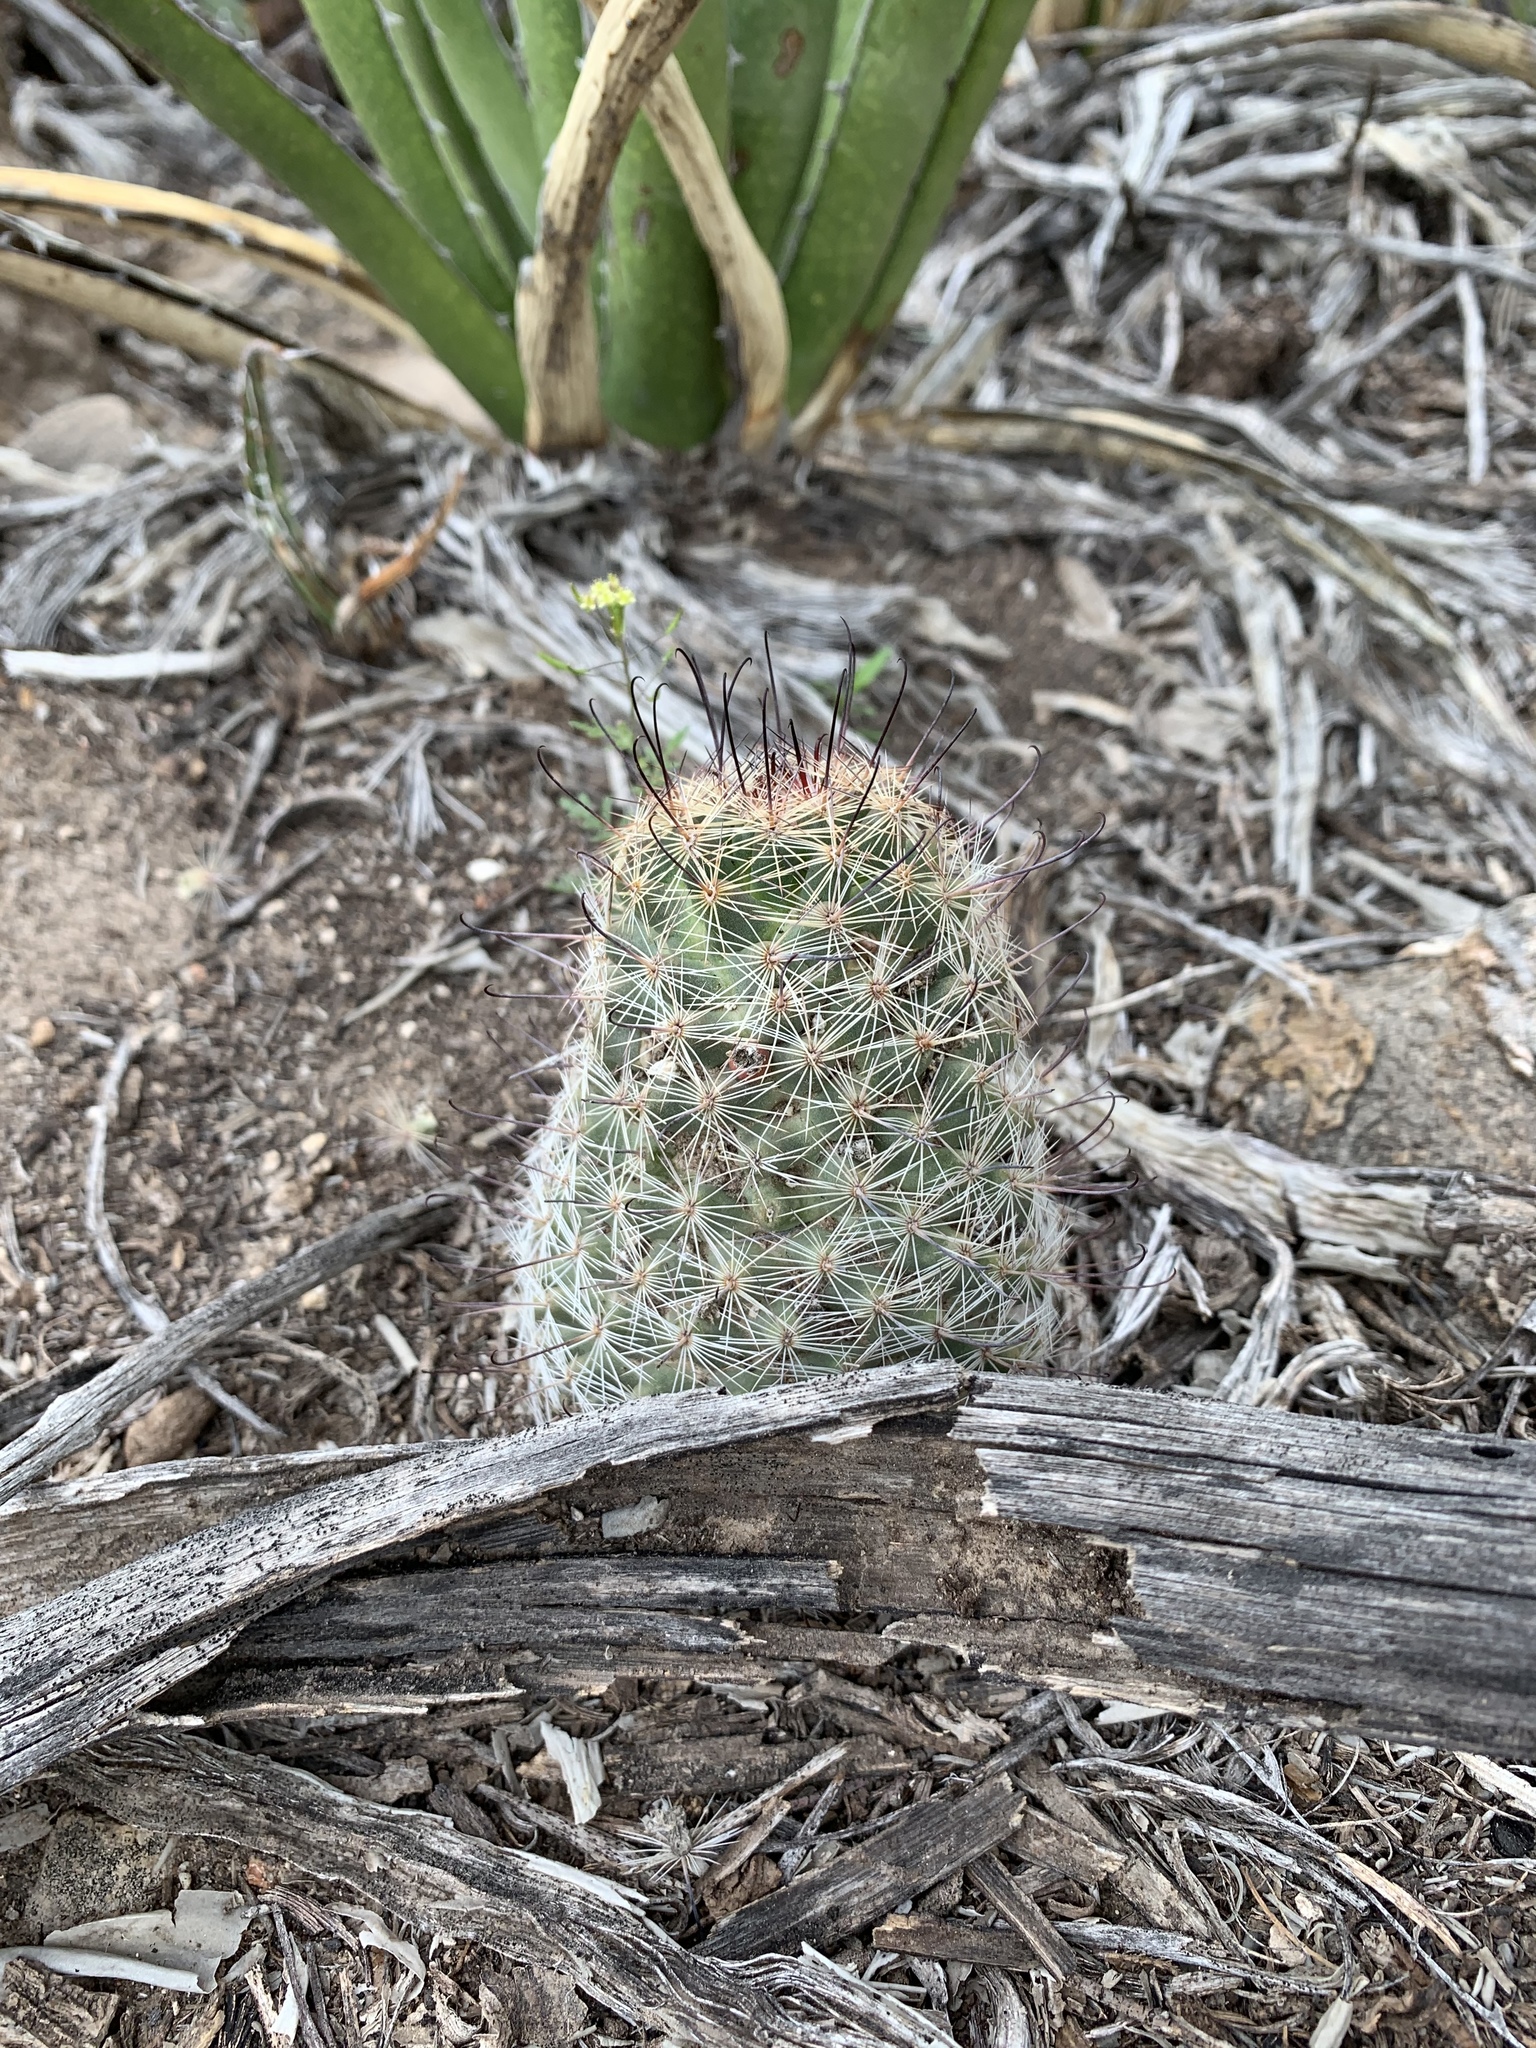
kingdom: Plantae
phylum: Tracheophyta
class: Magnoliopsida
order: Caryophyllales
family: Cactaceae
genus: Cochemiea
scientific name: Cochemiea grahamii
